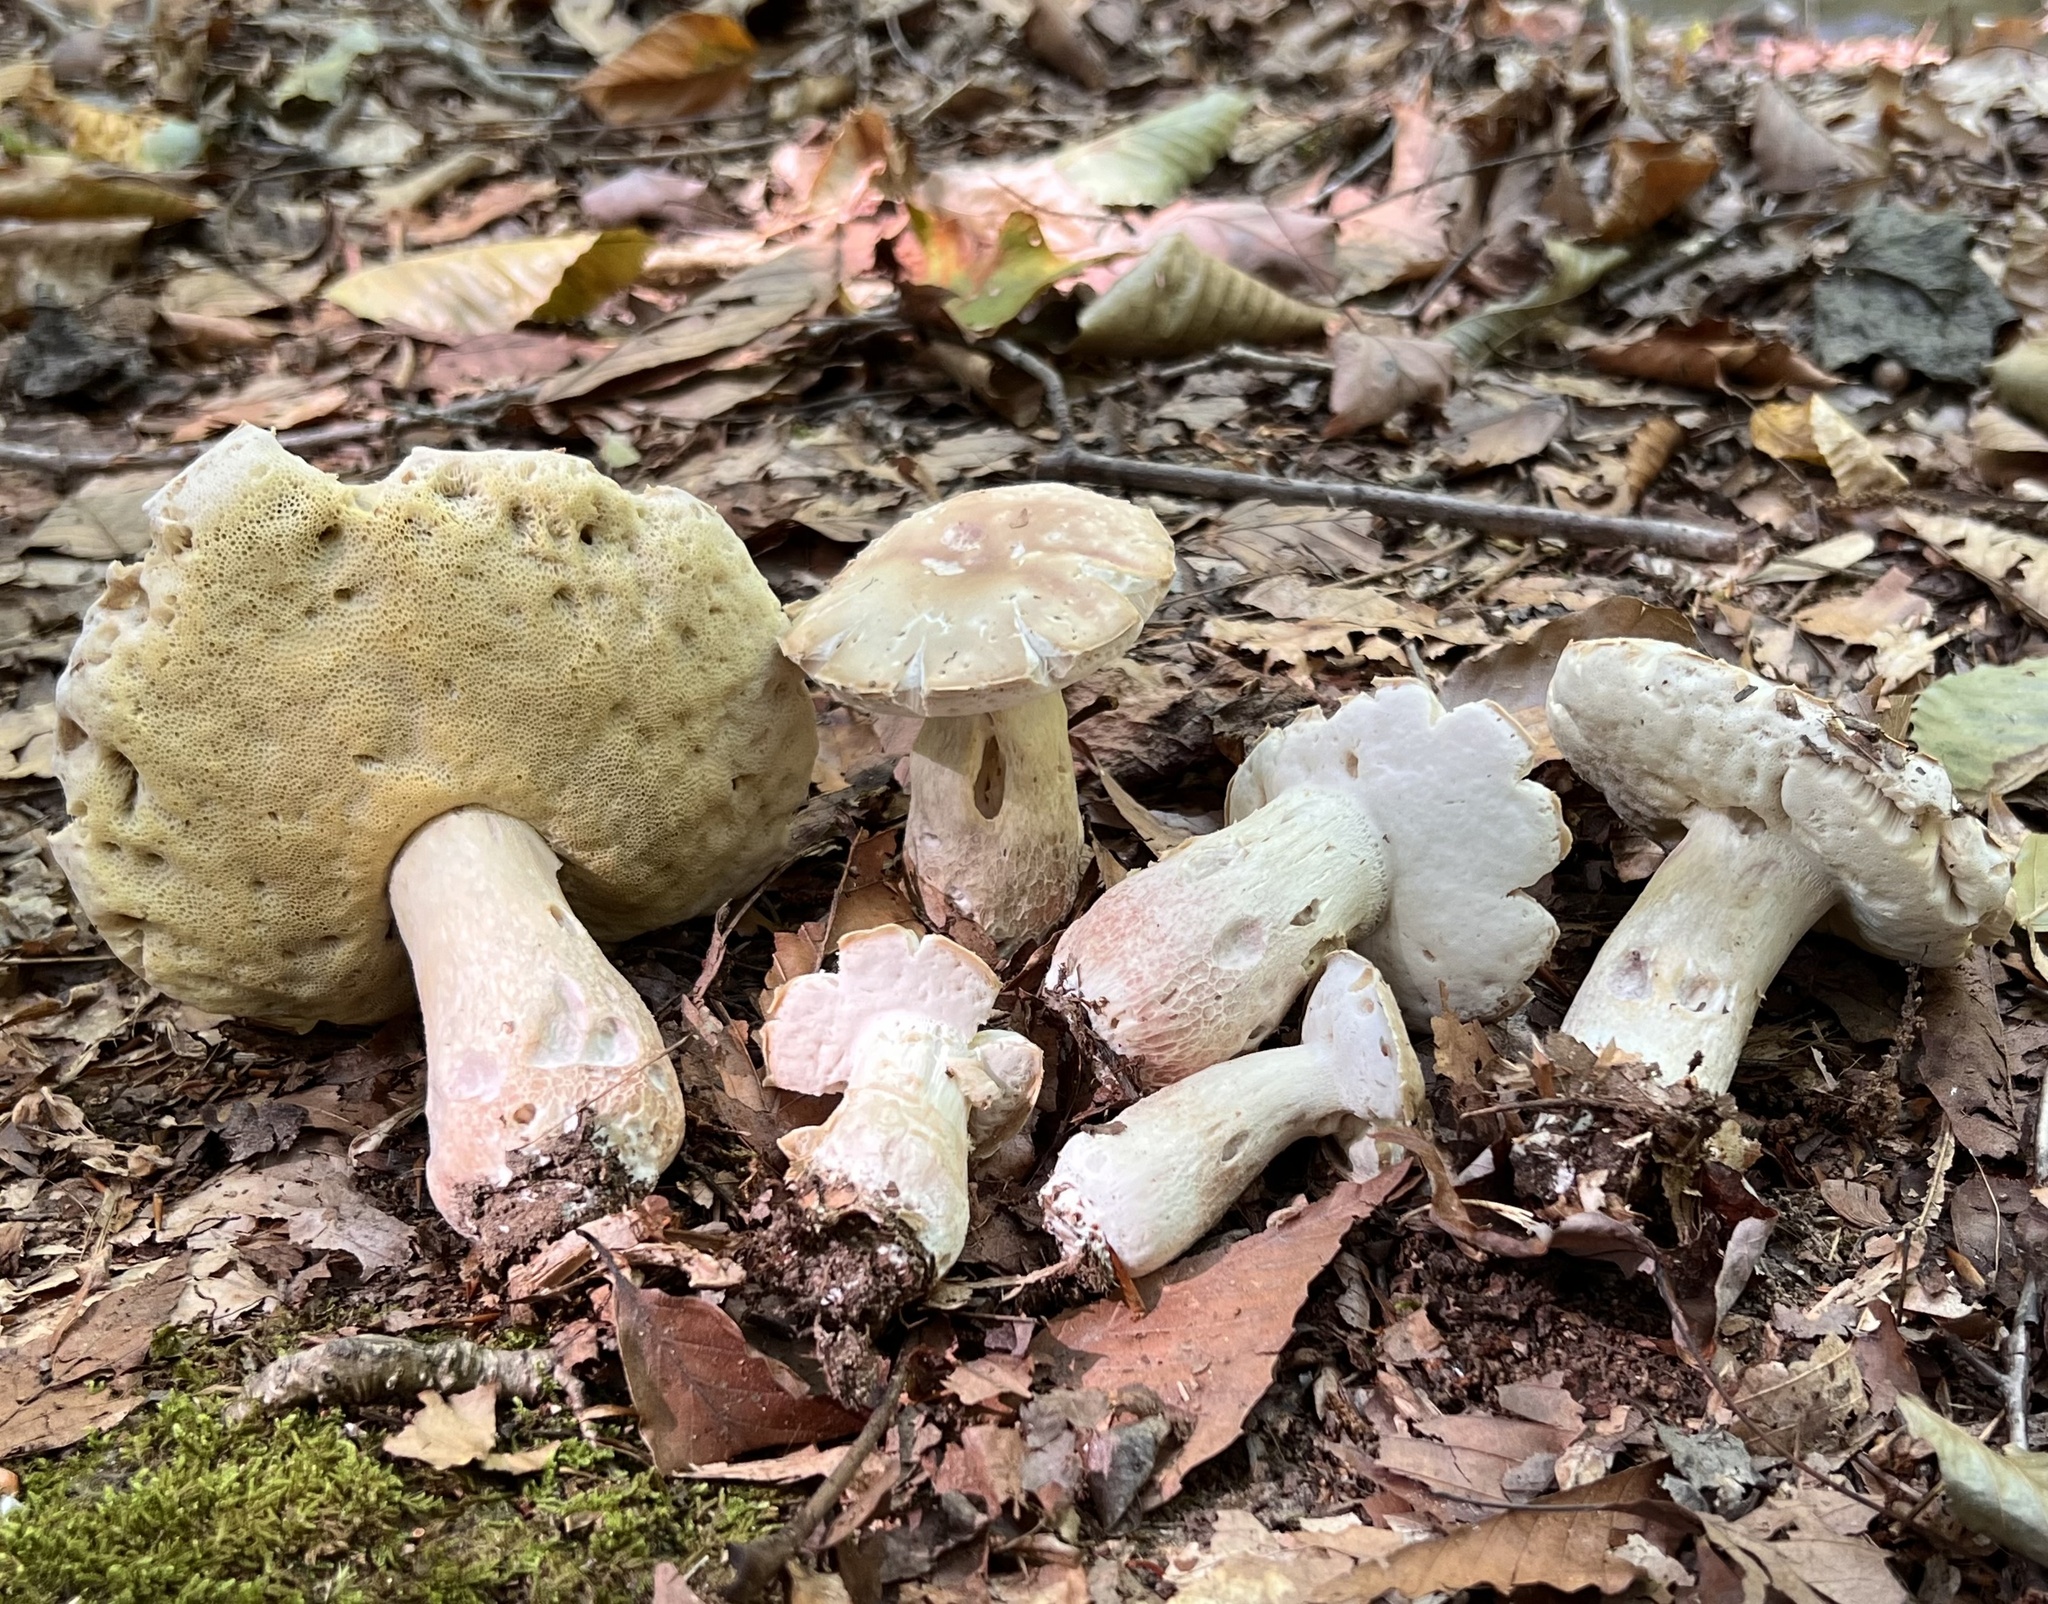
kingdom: Fungi
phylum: Basidiomycota
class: Agaricomycetes
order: Boletales
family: Boletaceae
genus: Xanthoconium
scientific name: Xanthoconium separans
